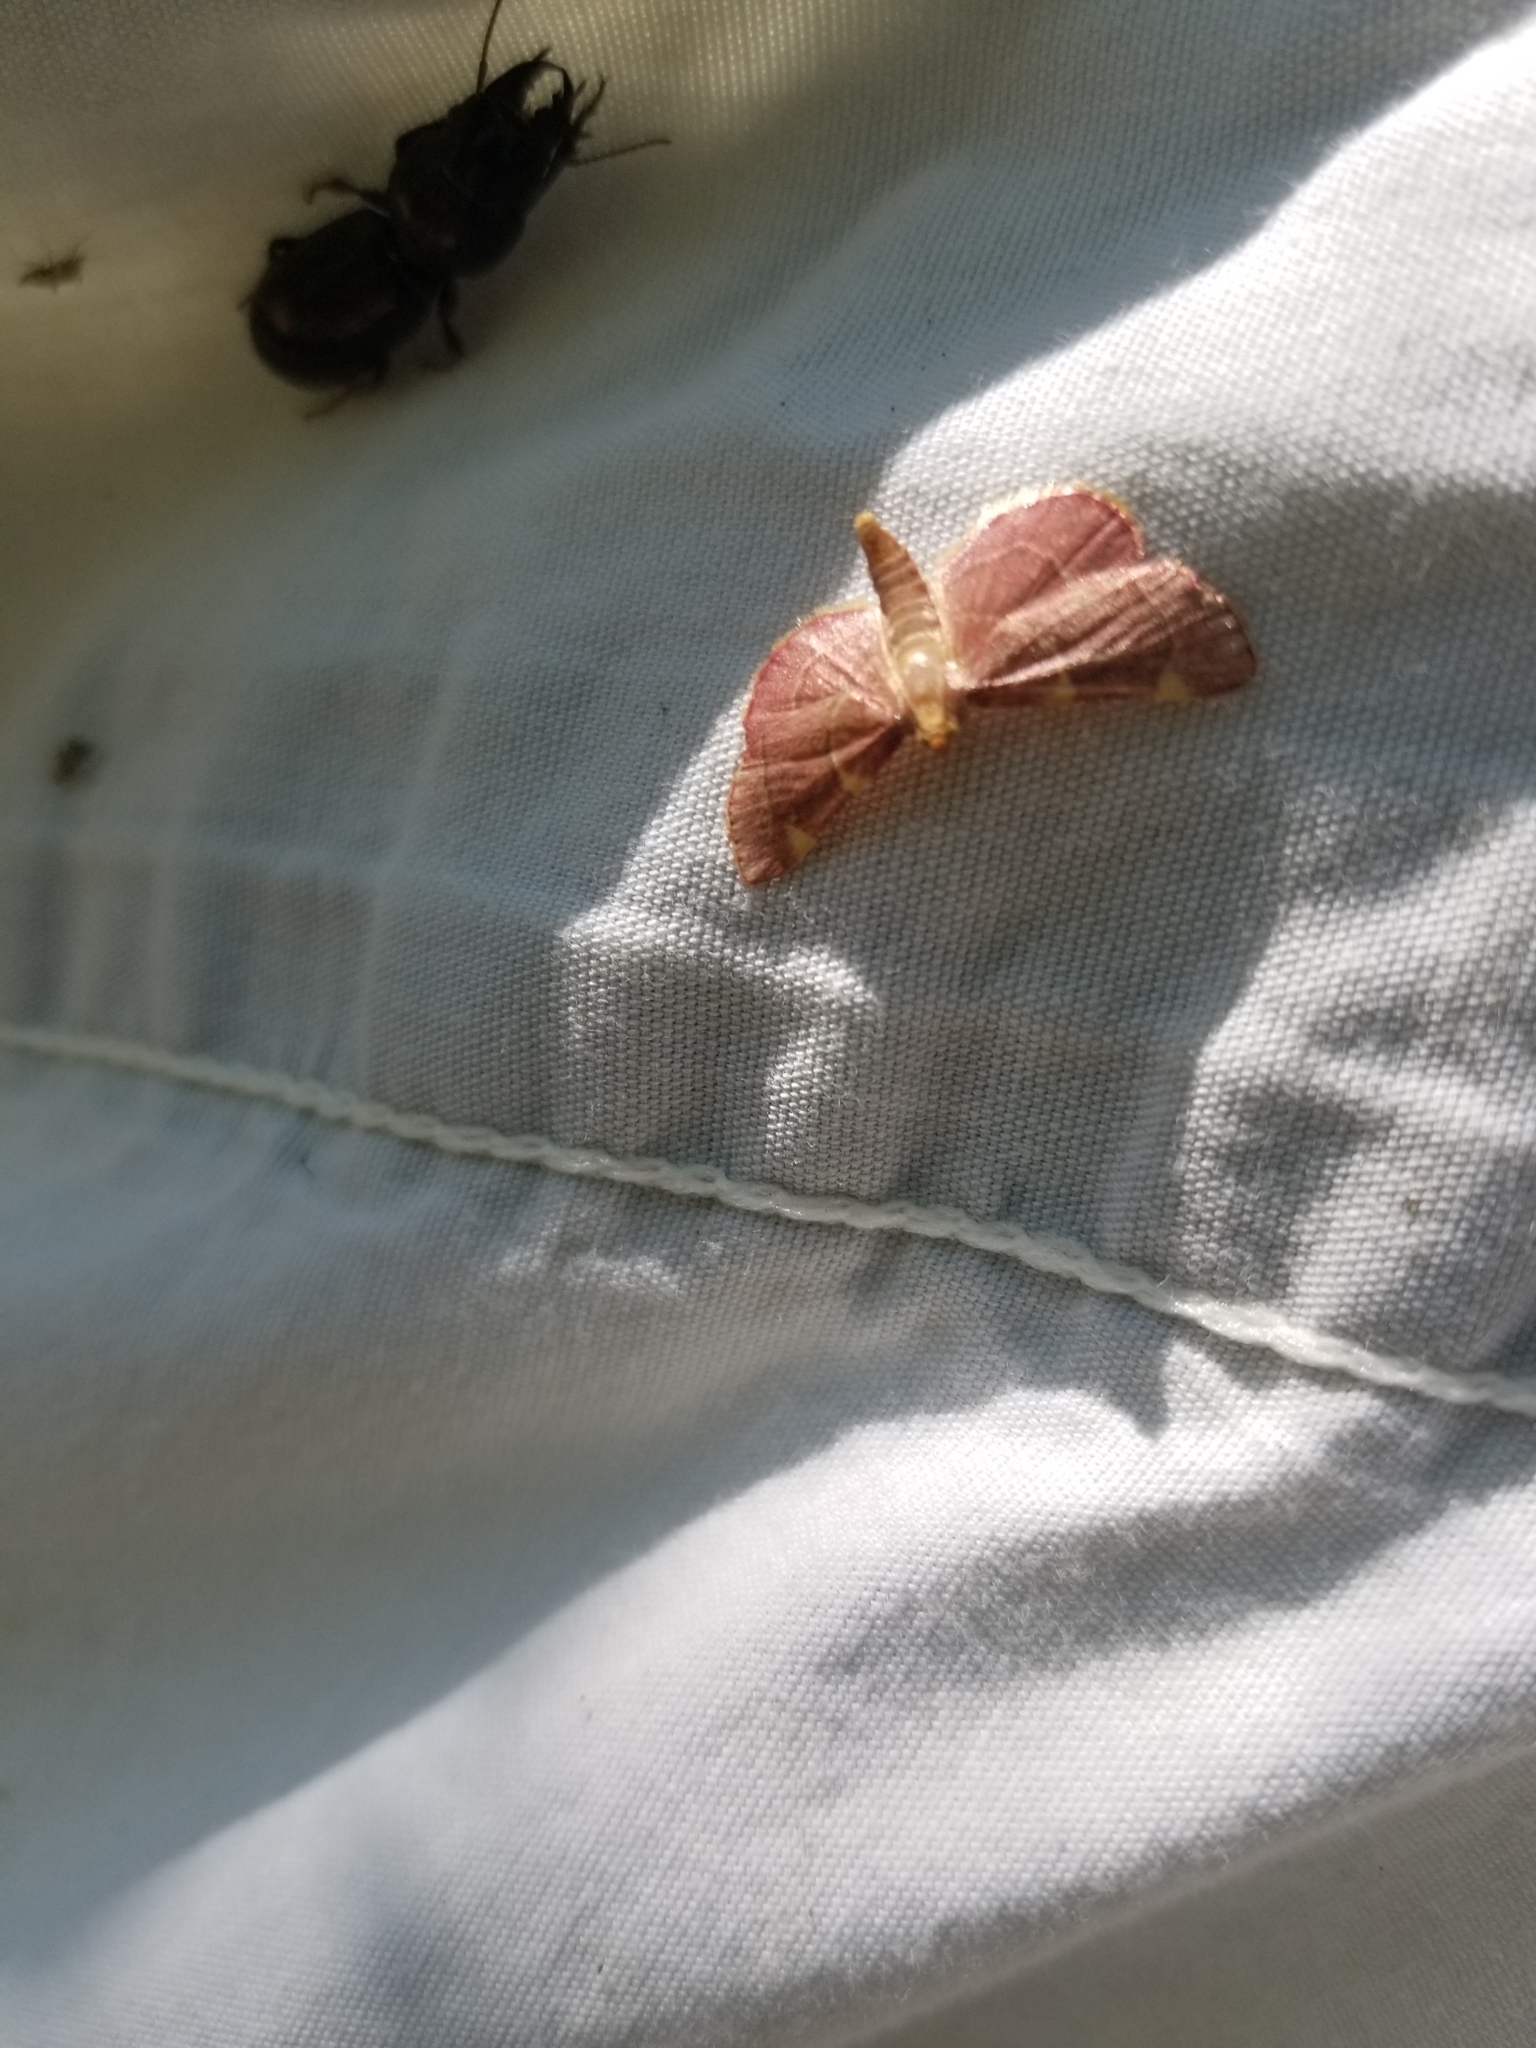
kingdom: Animalia
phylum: Arthropoda
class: Insecta
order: Lepidoptera
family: Pyralidae
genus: Hypsopygia
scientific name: Hypsopygia costalis
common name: Gold triangle
